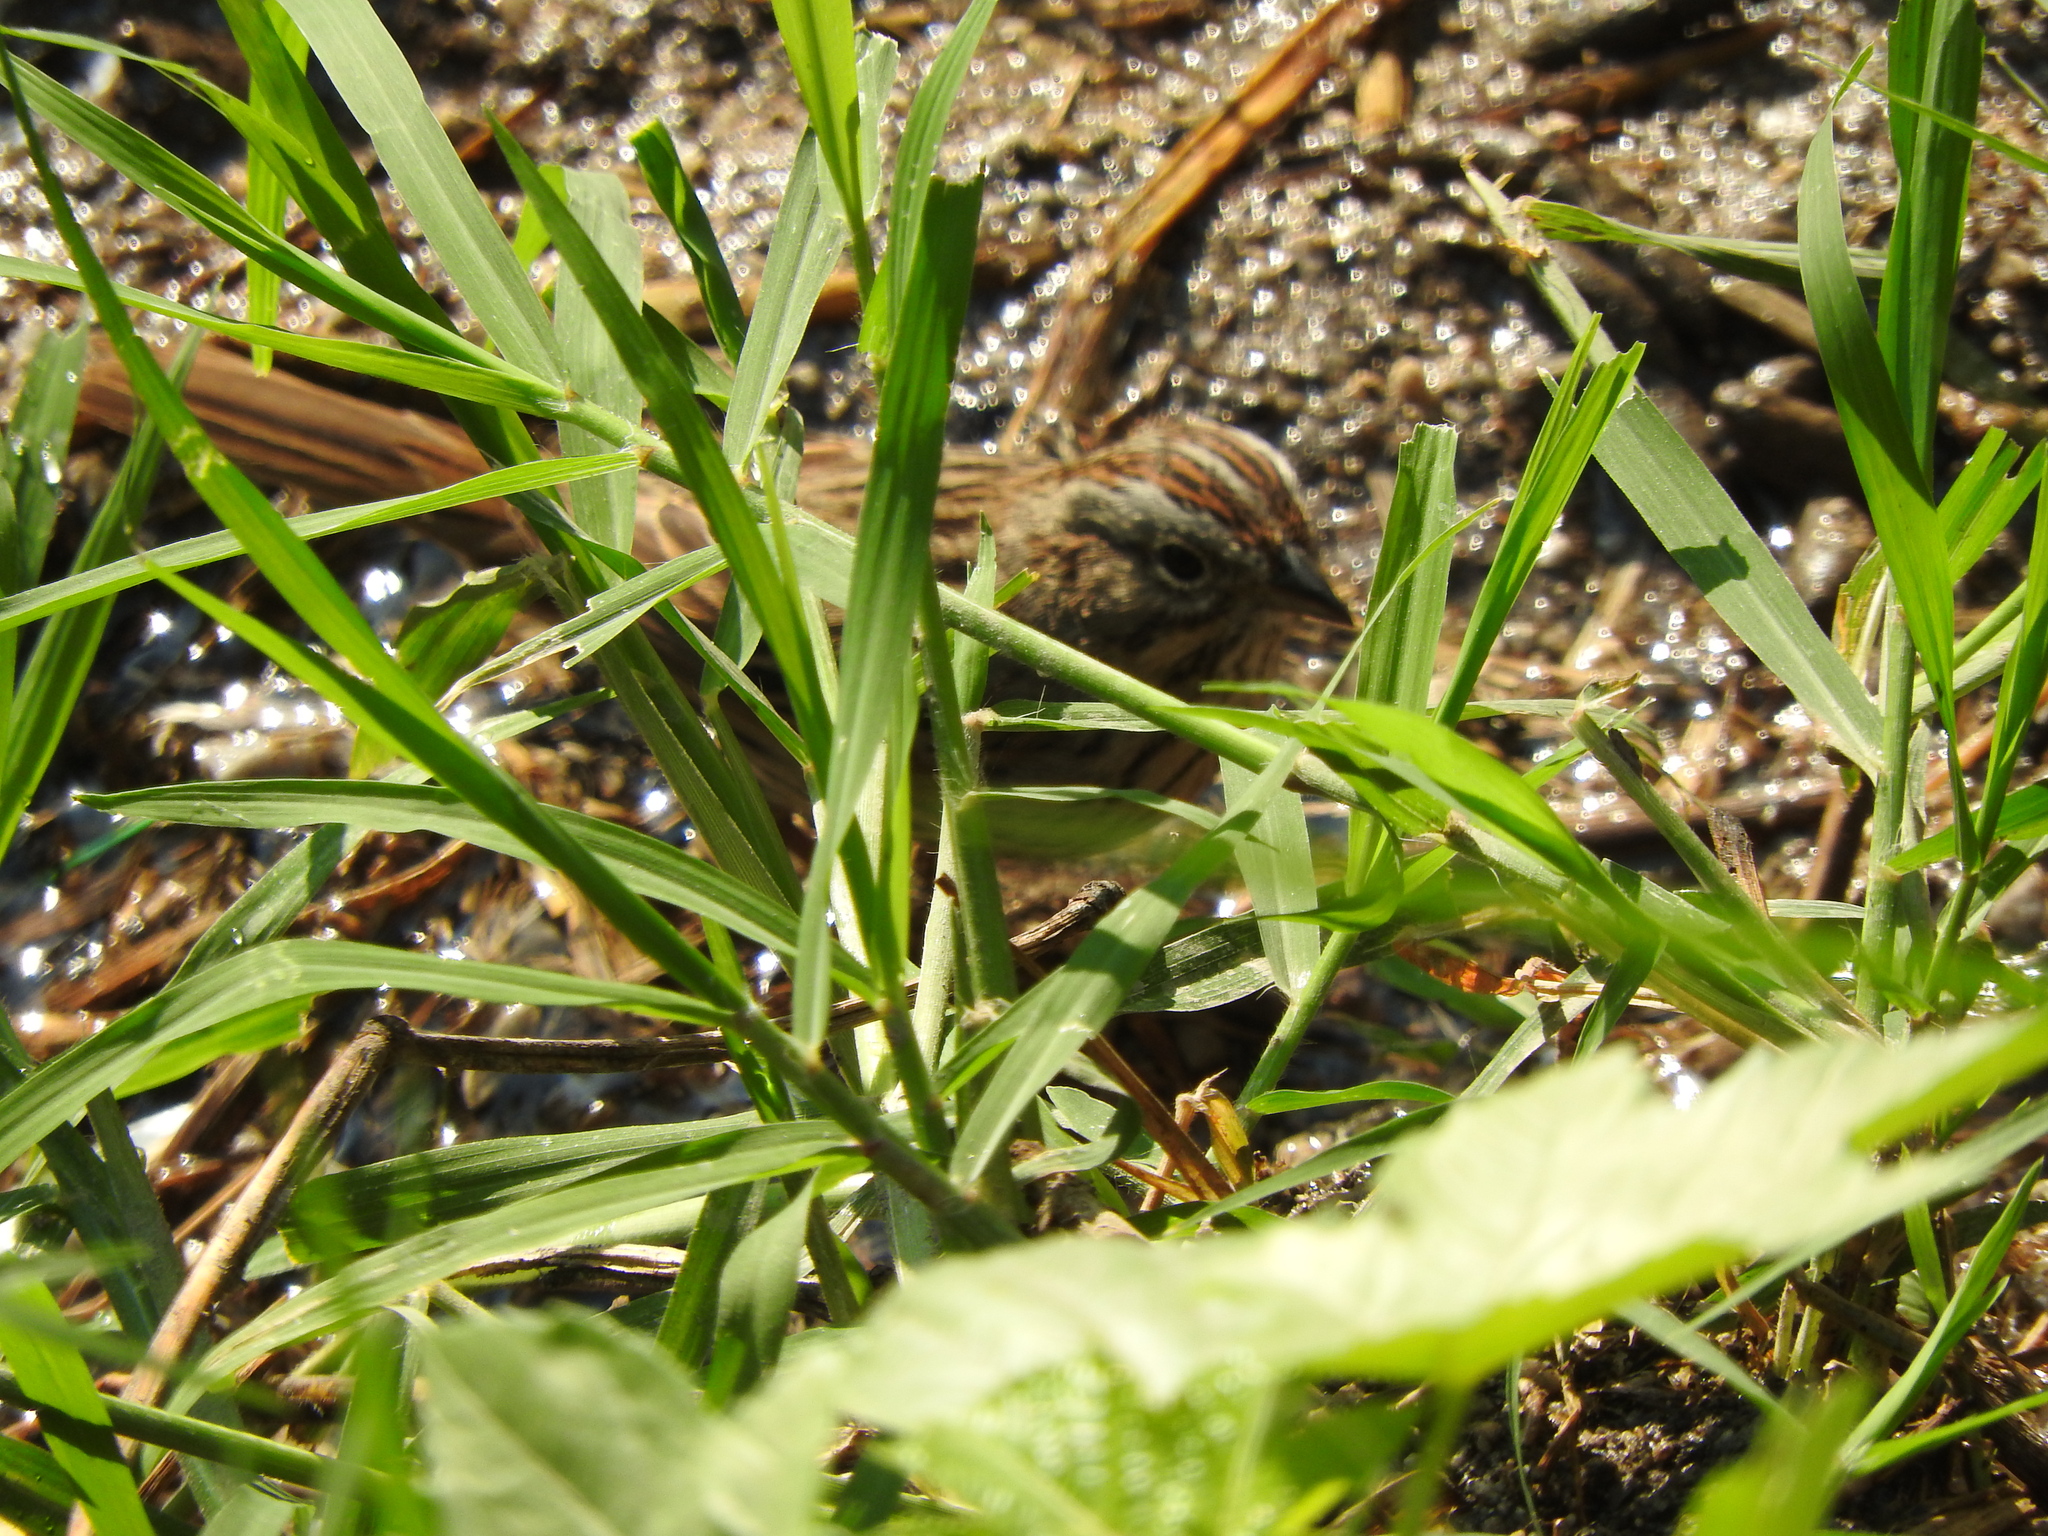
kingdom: Animalia
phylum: Chordata
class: Aves
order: Passeriformes
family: Passerellidae
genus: Melospiza
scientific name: Melospiza lincolnii
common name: Lincoln's sparrow
